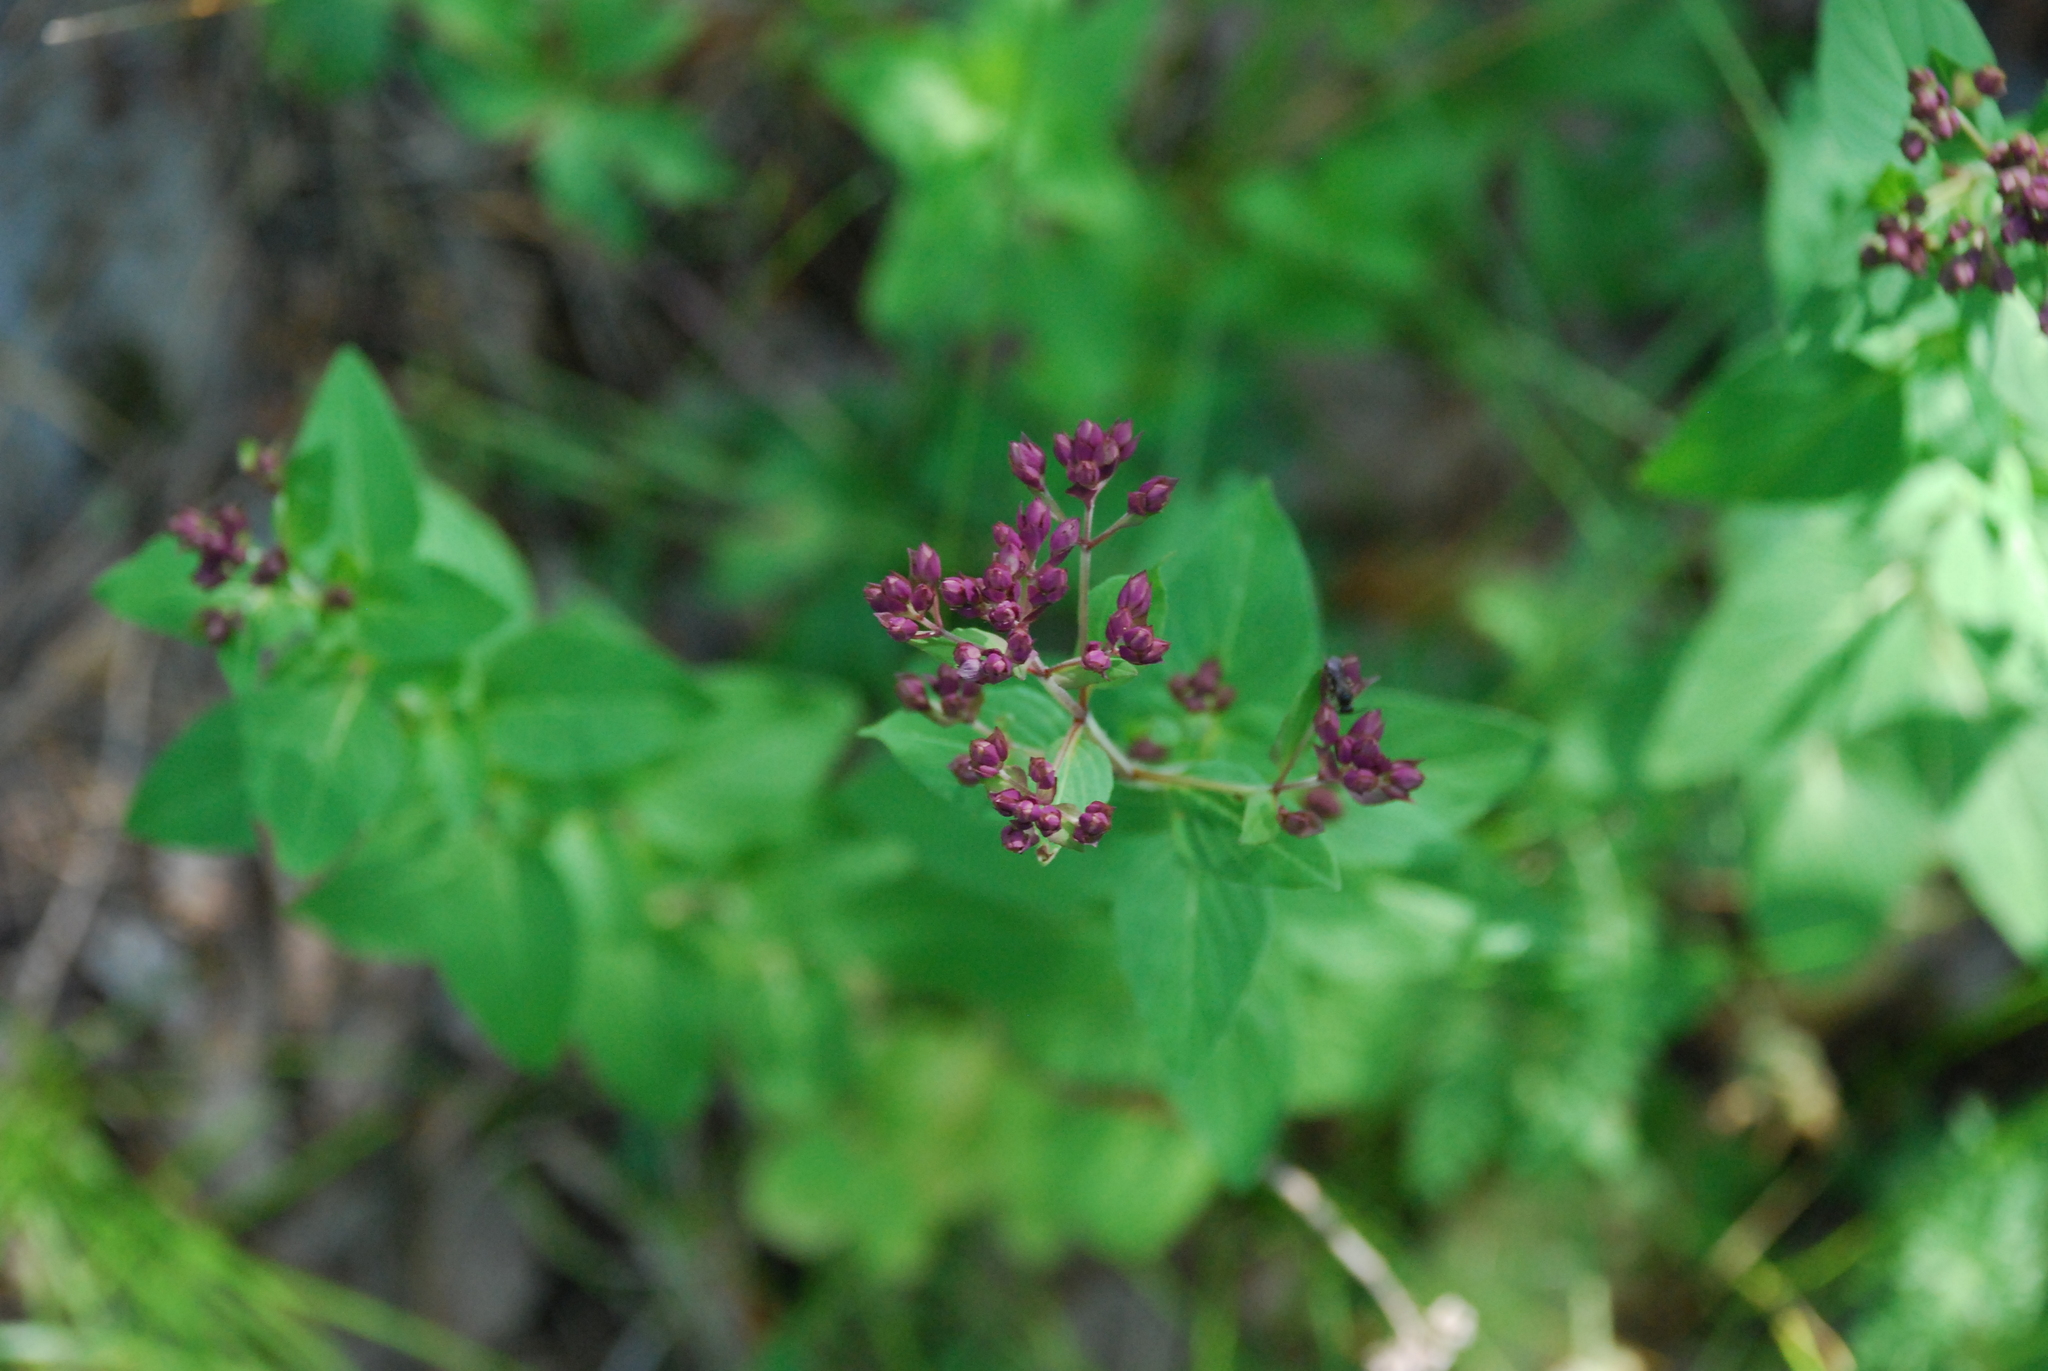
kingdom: Plantae
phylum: Tracheophyta
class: Magnoliopsida
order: Lamiales
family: Lamiaceae
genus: Origanum
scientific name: Origanum vulgare
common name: Wild marjoram
